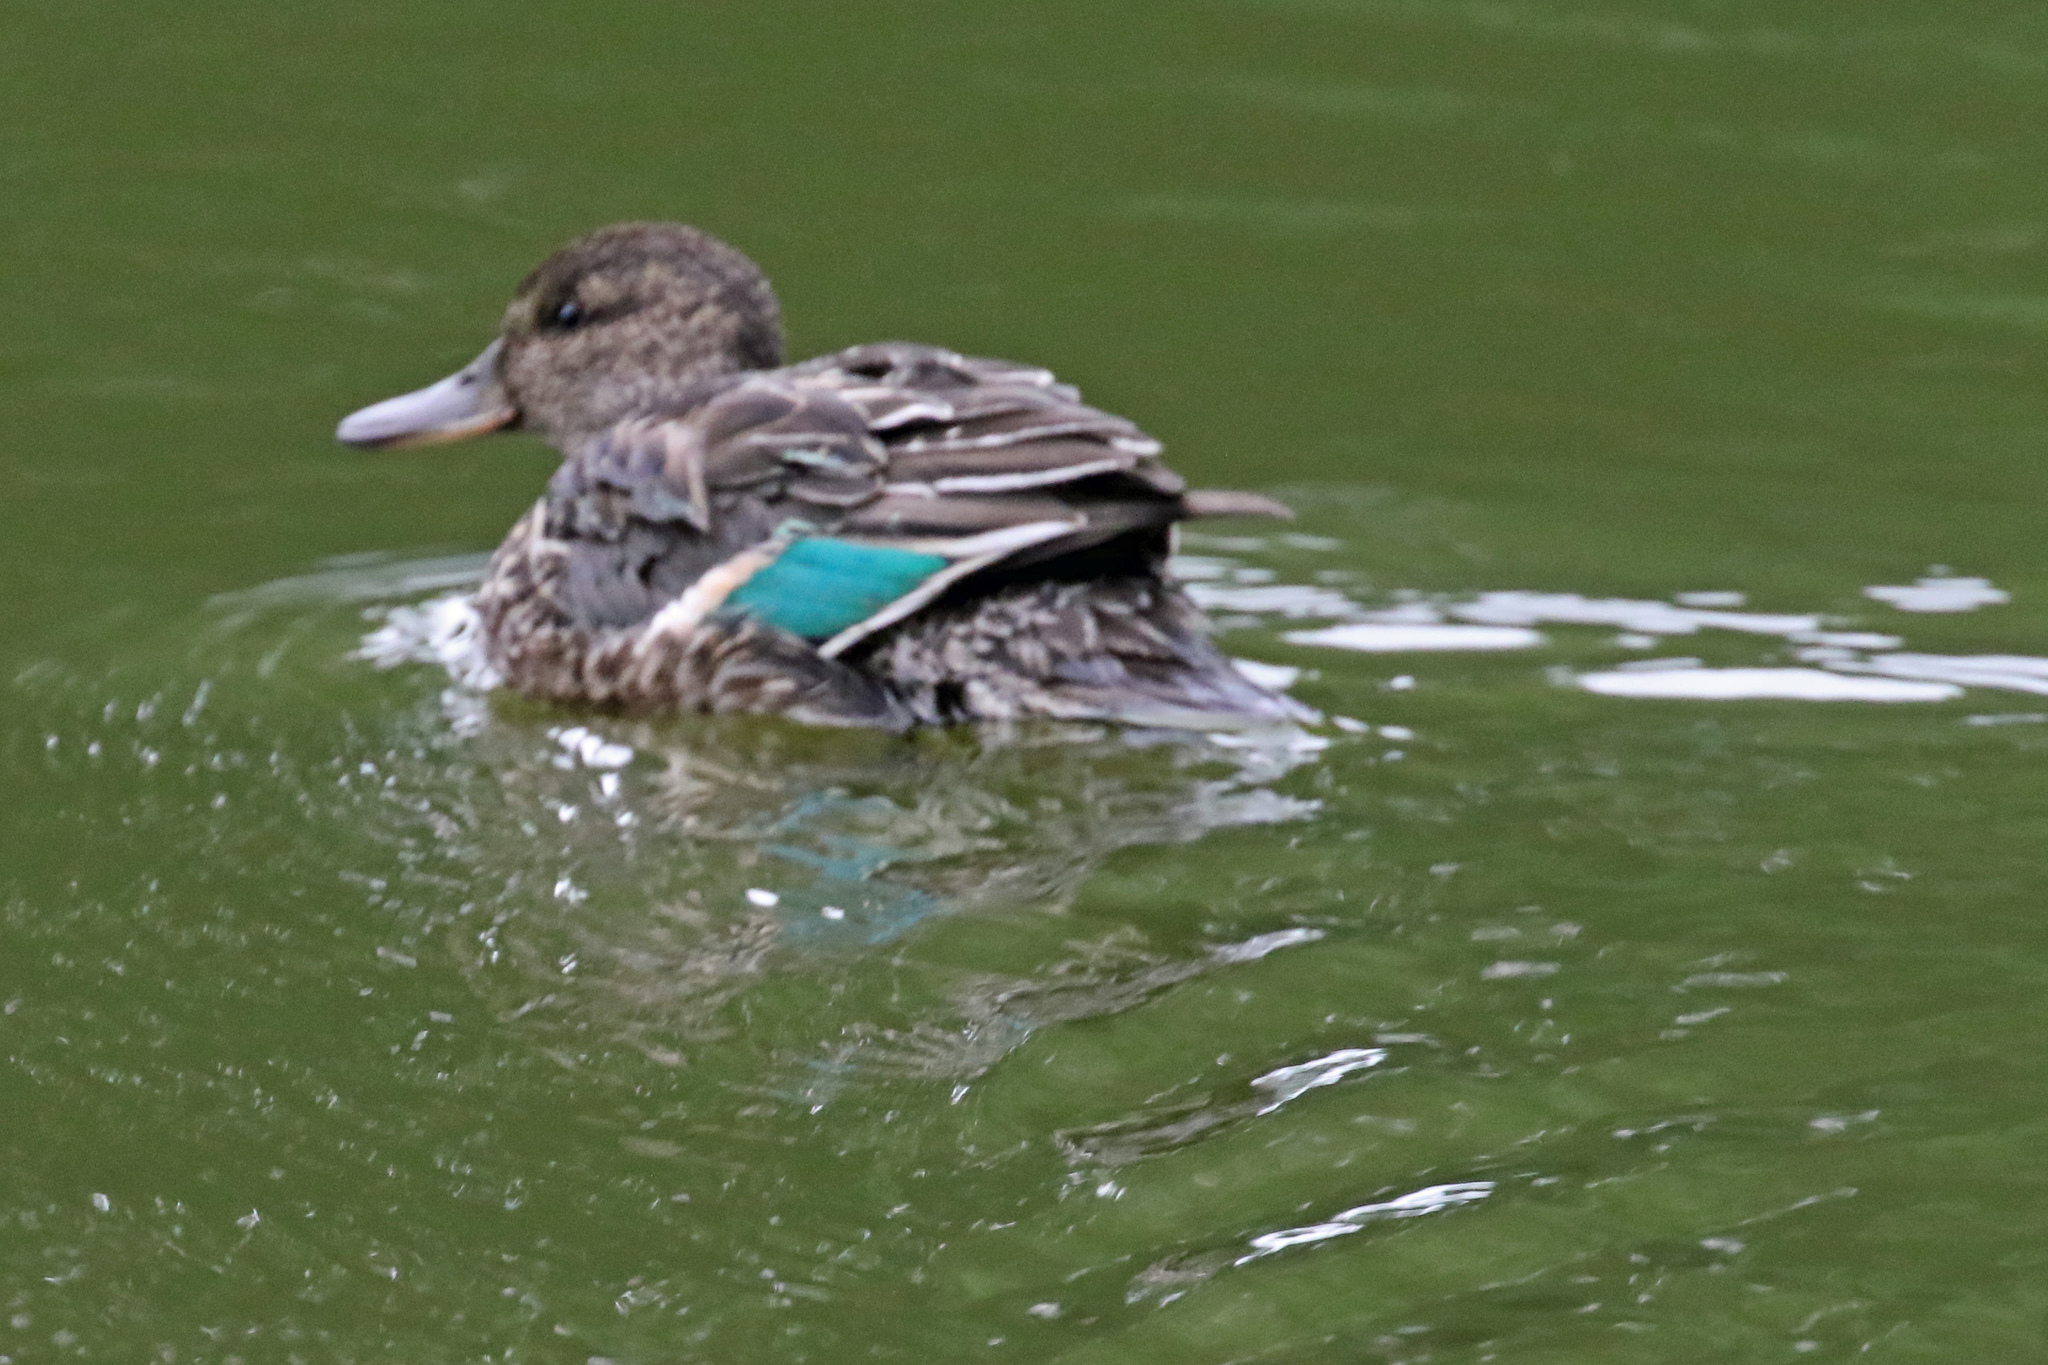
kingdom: Animalia
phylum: Chordata
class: Aves
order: Anseriformes
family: Anatidae
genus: Anas
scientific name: Anas crecca
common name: Eurasian teal
